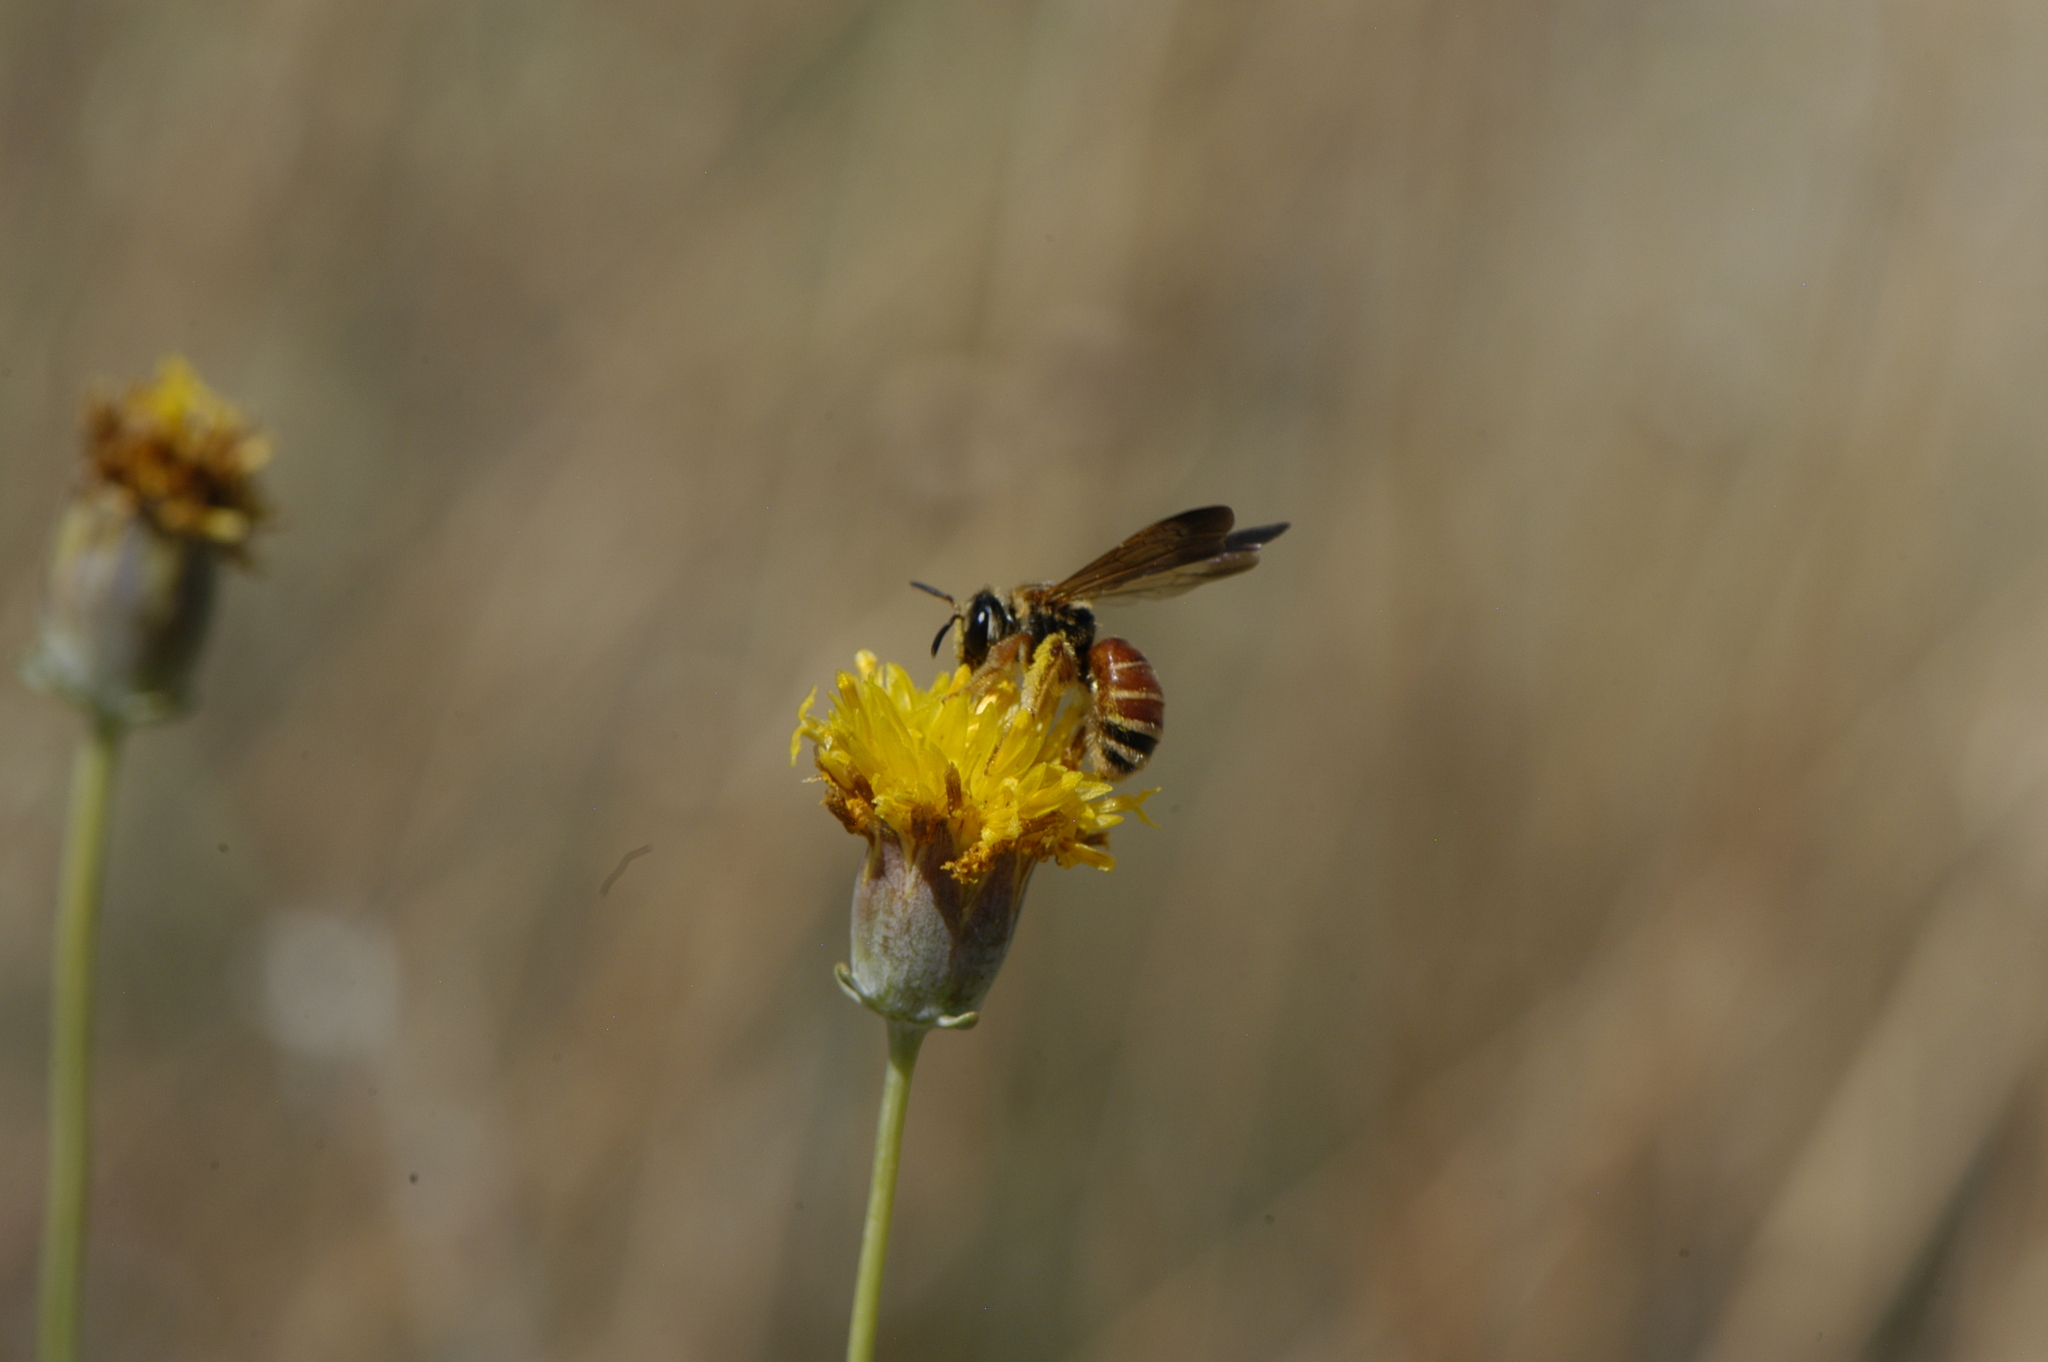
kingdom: Animalia
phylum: Arthropoda
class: Insecta
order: Hymenoptera
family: Halictidae
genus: Dieunomia
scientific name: Dieunomia nevadensis
